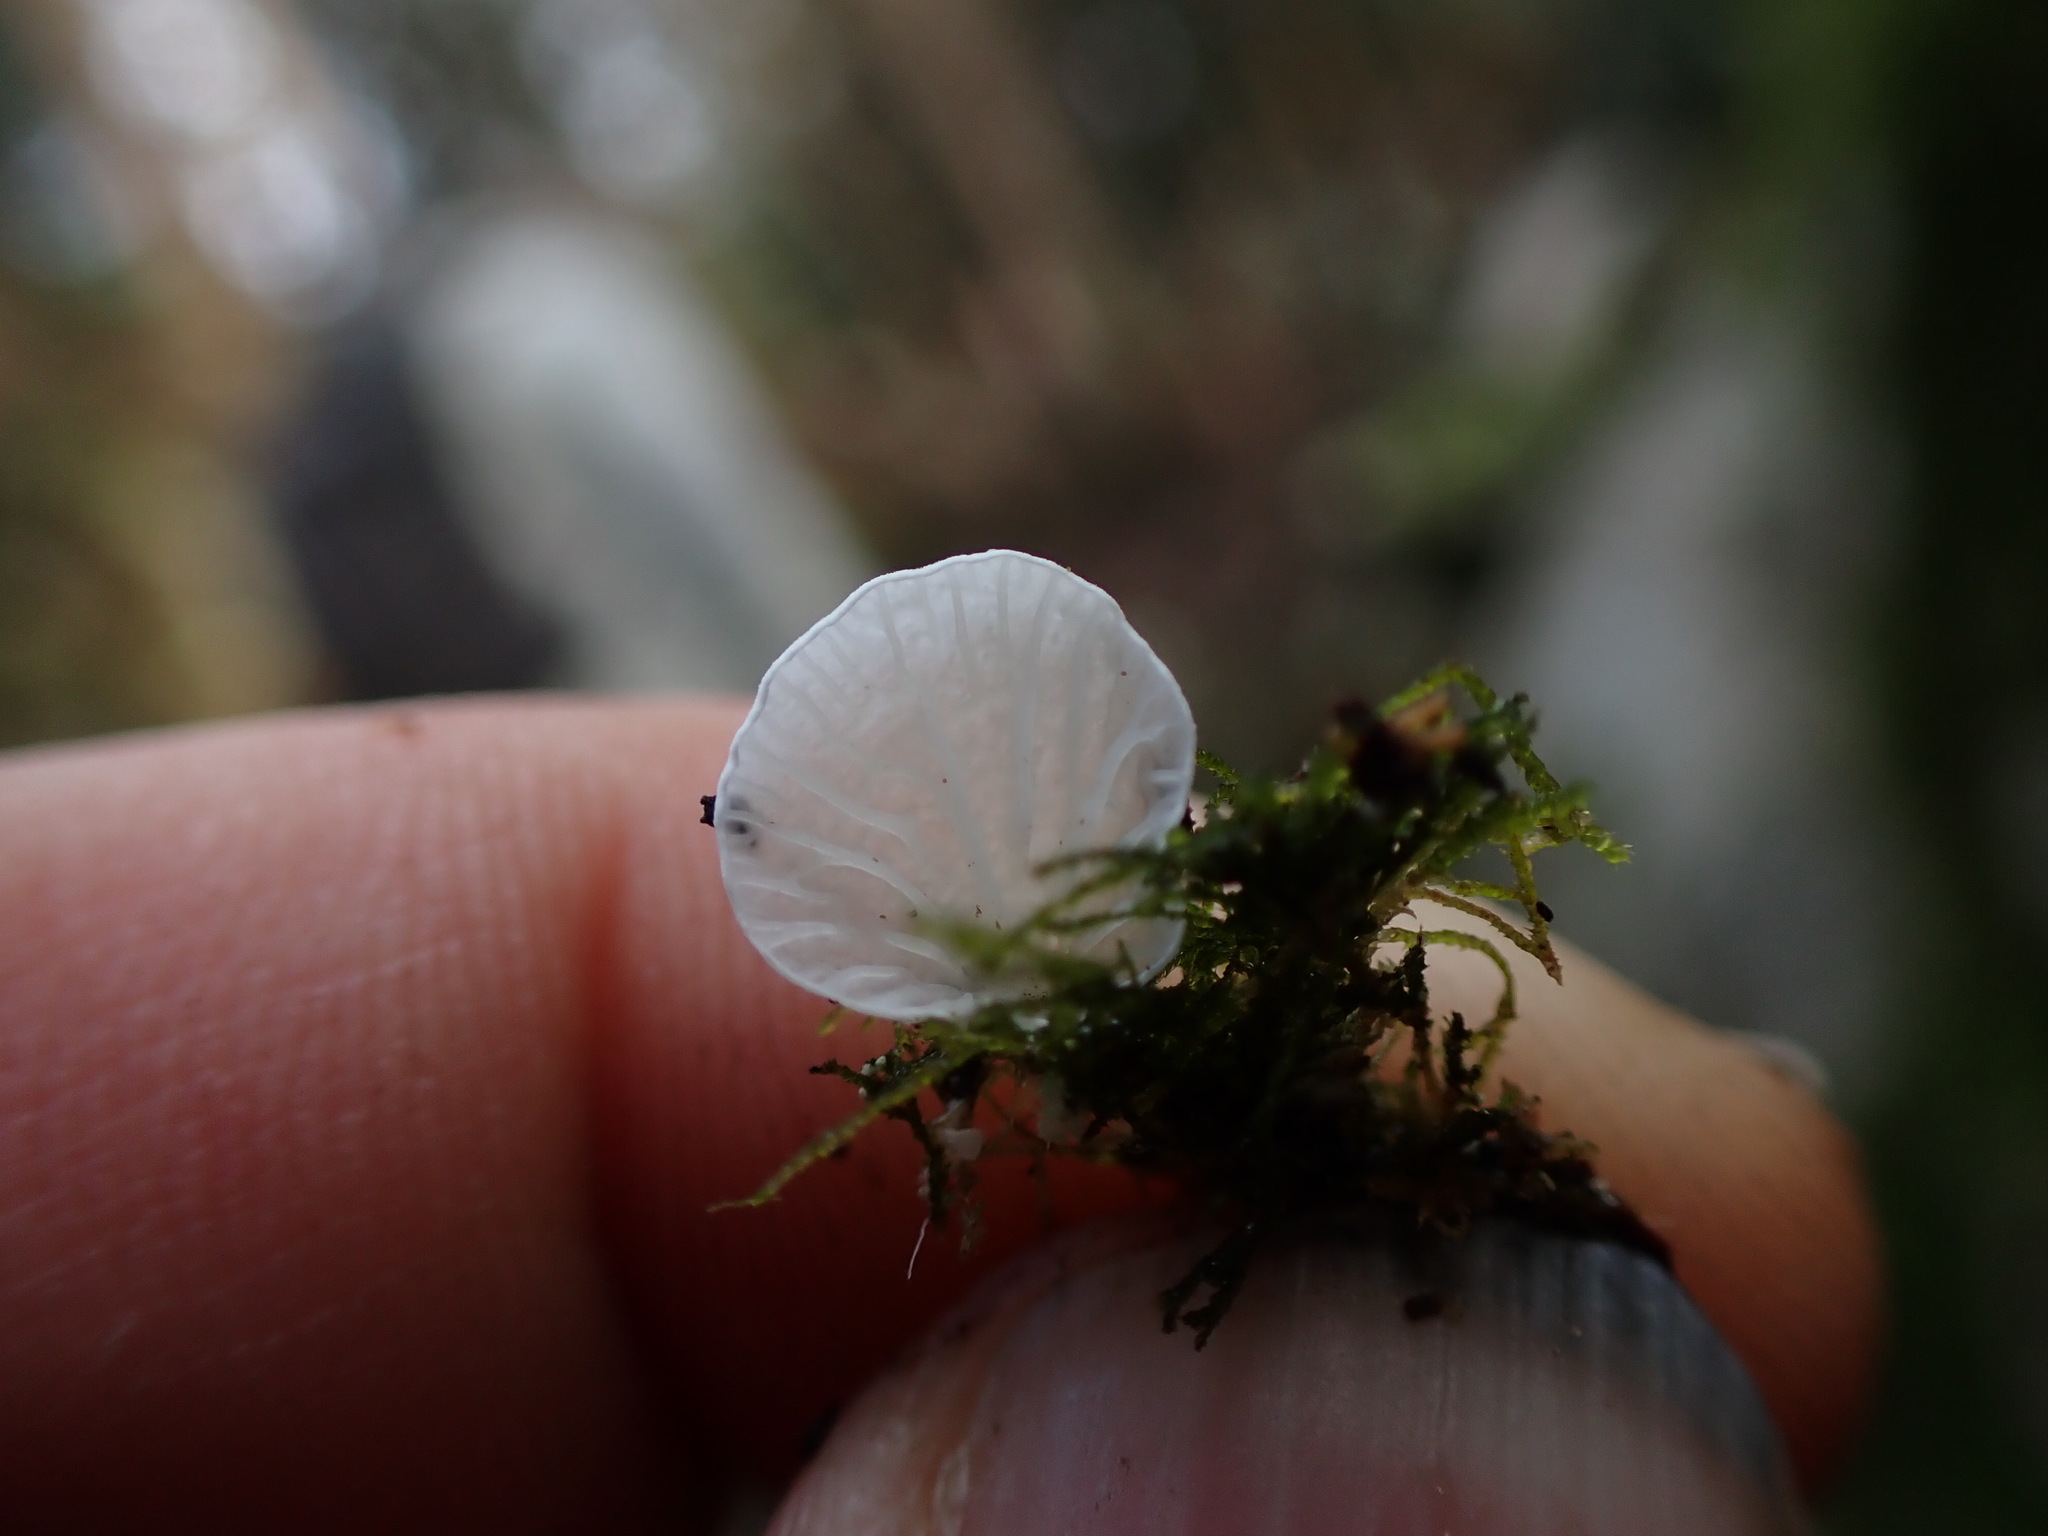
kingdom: Fungi
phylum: Basidiomycota
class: Agaricomycetes
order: Agaricales
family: Tricholomataceae
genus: Rimbachia
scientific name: Rimbachia bryophila
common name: Veined mossear
